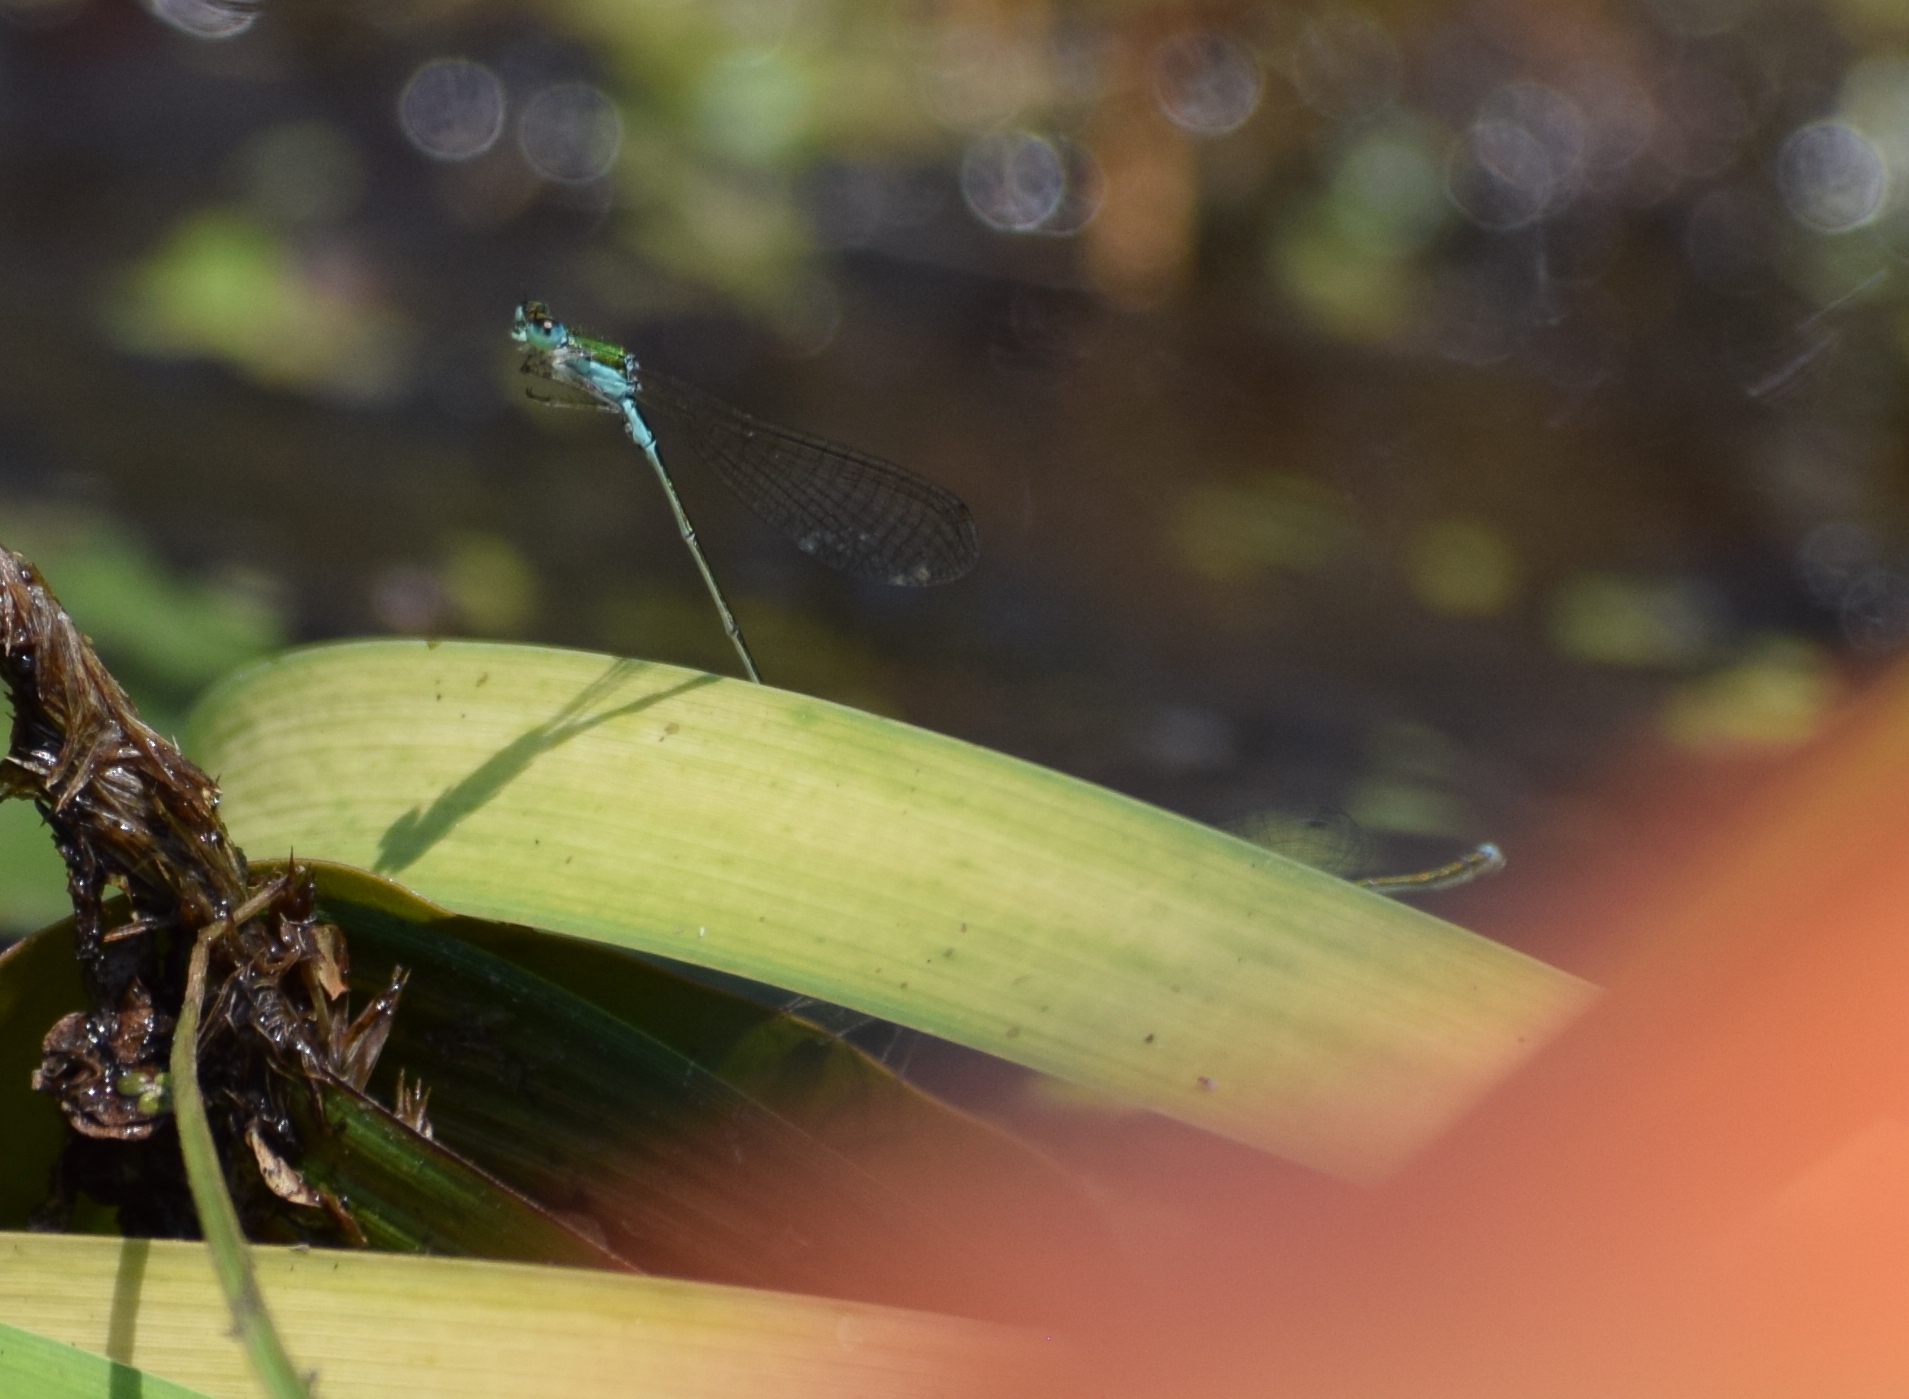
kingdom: Animalia
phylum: Arthropoda
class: Insecta
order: Odonata
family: Coenagrionidae
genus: Nehalennia
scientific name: Nehalennia irene
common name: Sedge sprite
